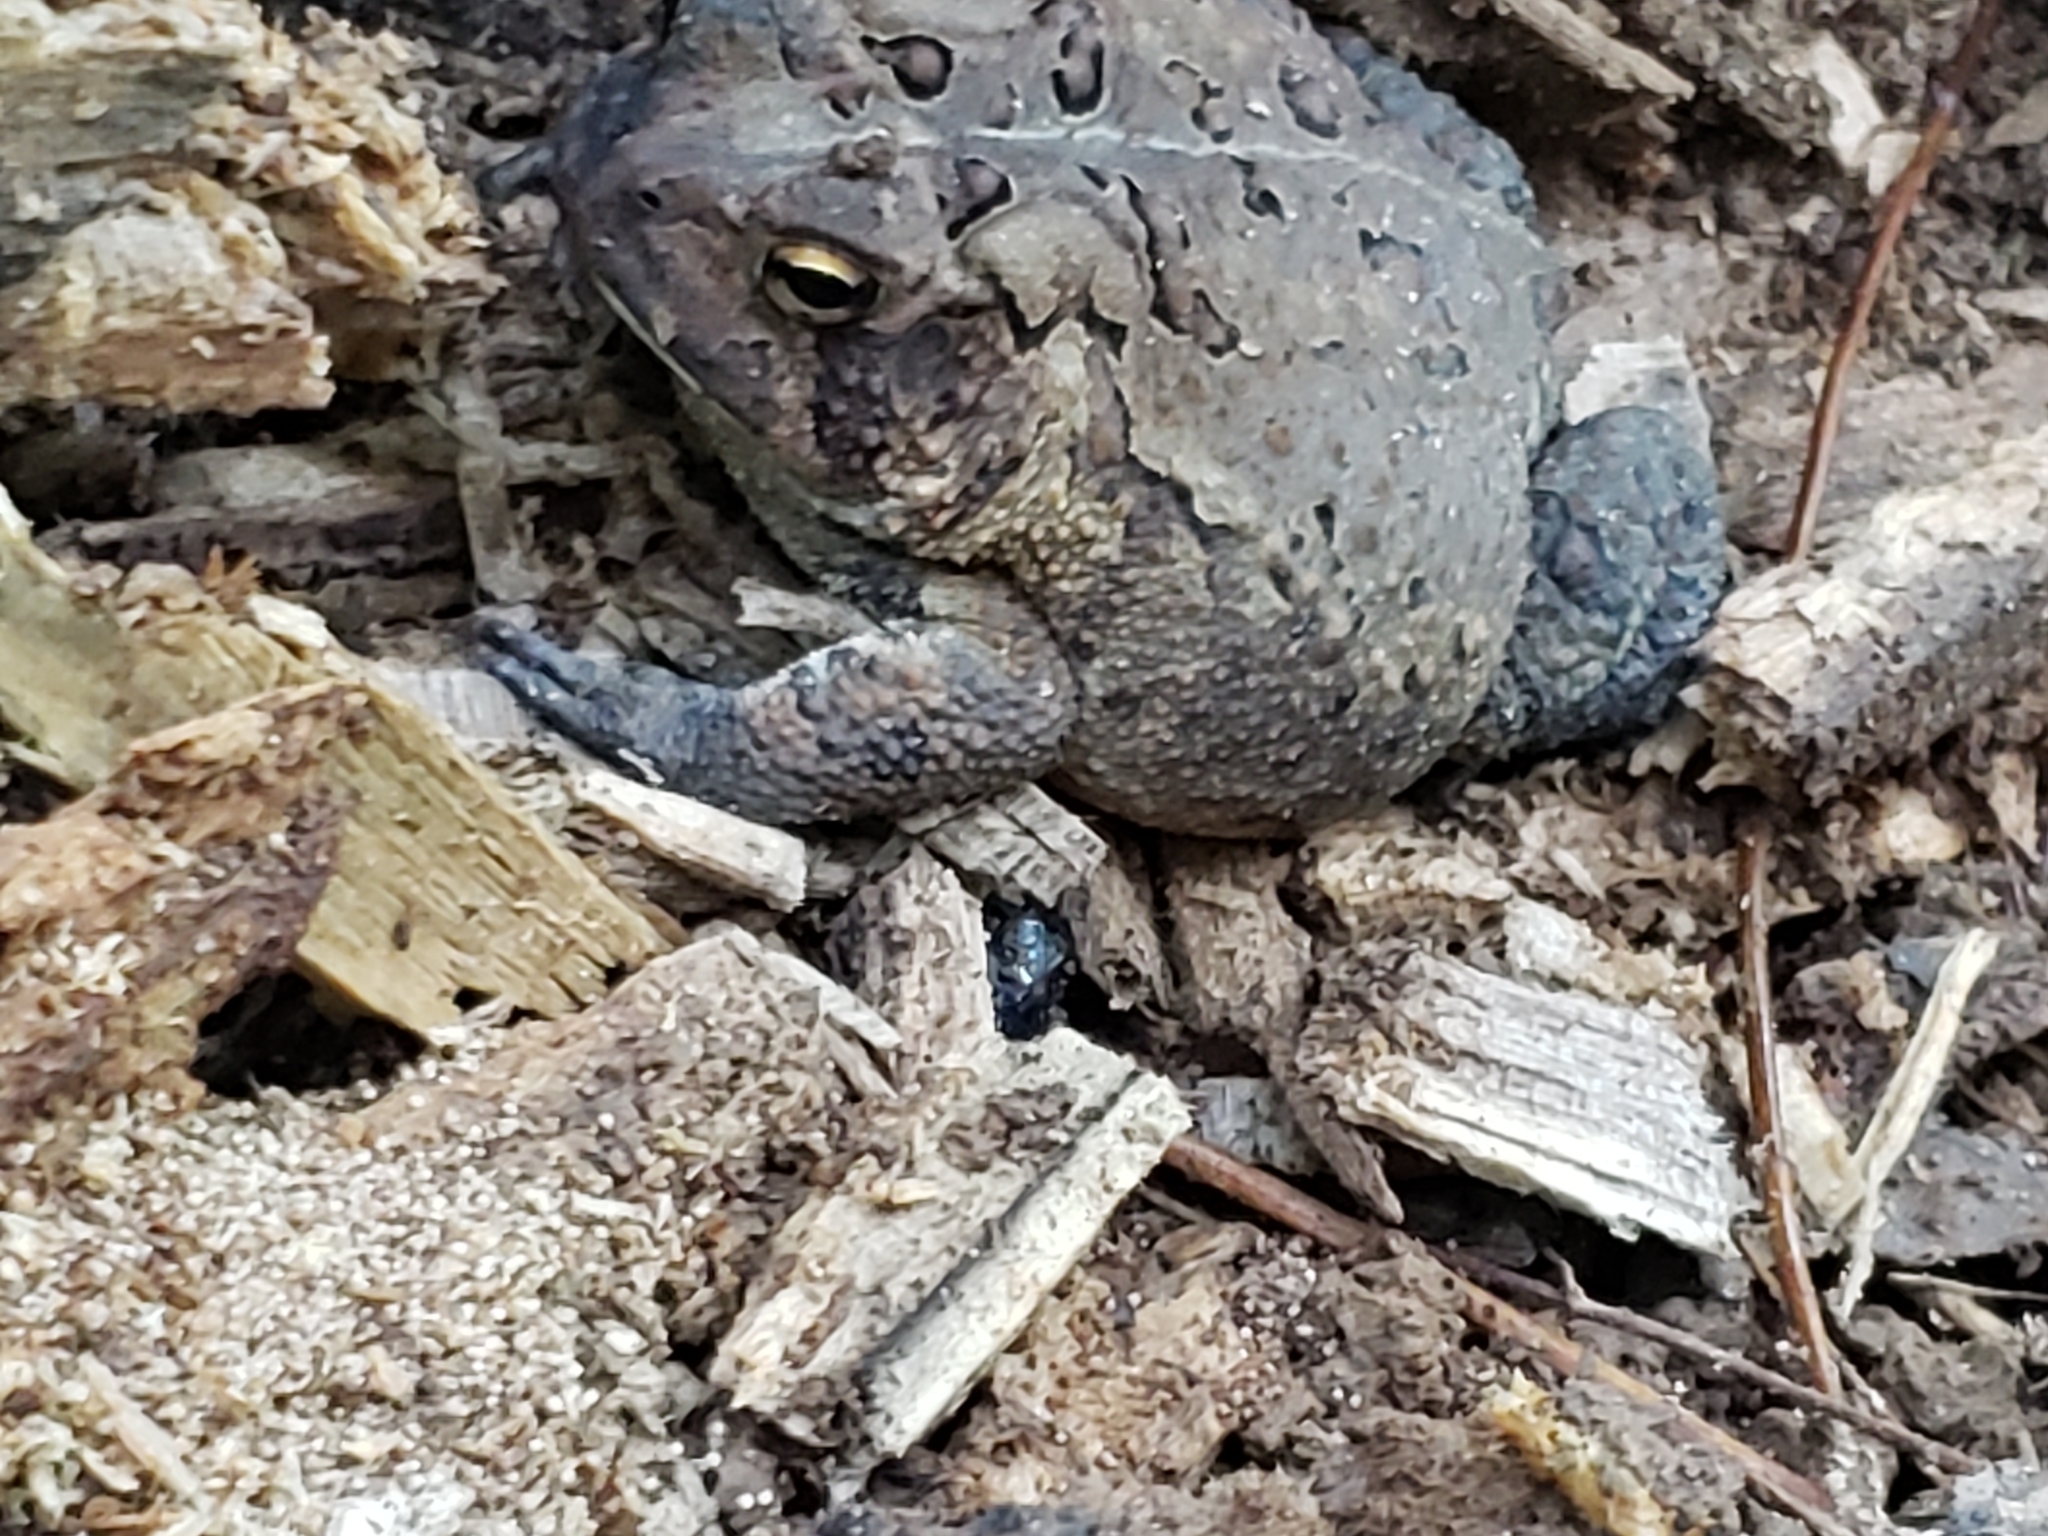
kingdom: Animalia
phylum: Chordata
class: Amphibia
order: Anura
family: Bufonidae
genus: Anaxyrus
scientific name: Anaxyrus americanus
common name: American toad
